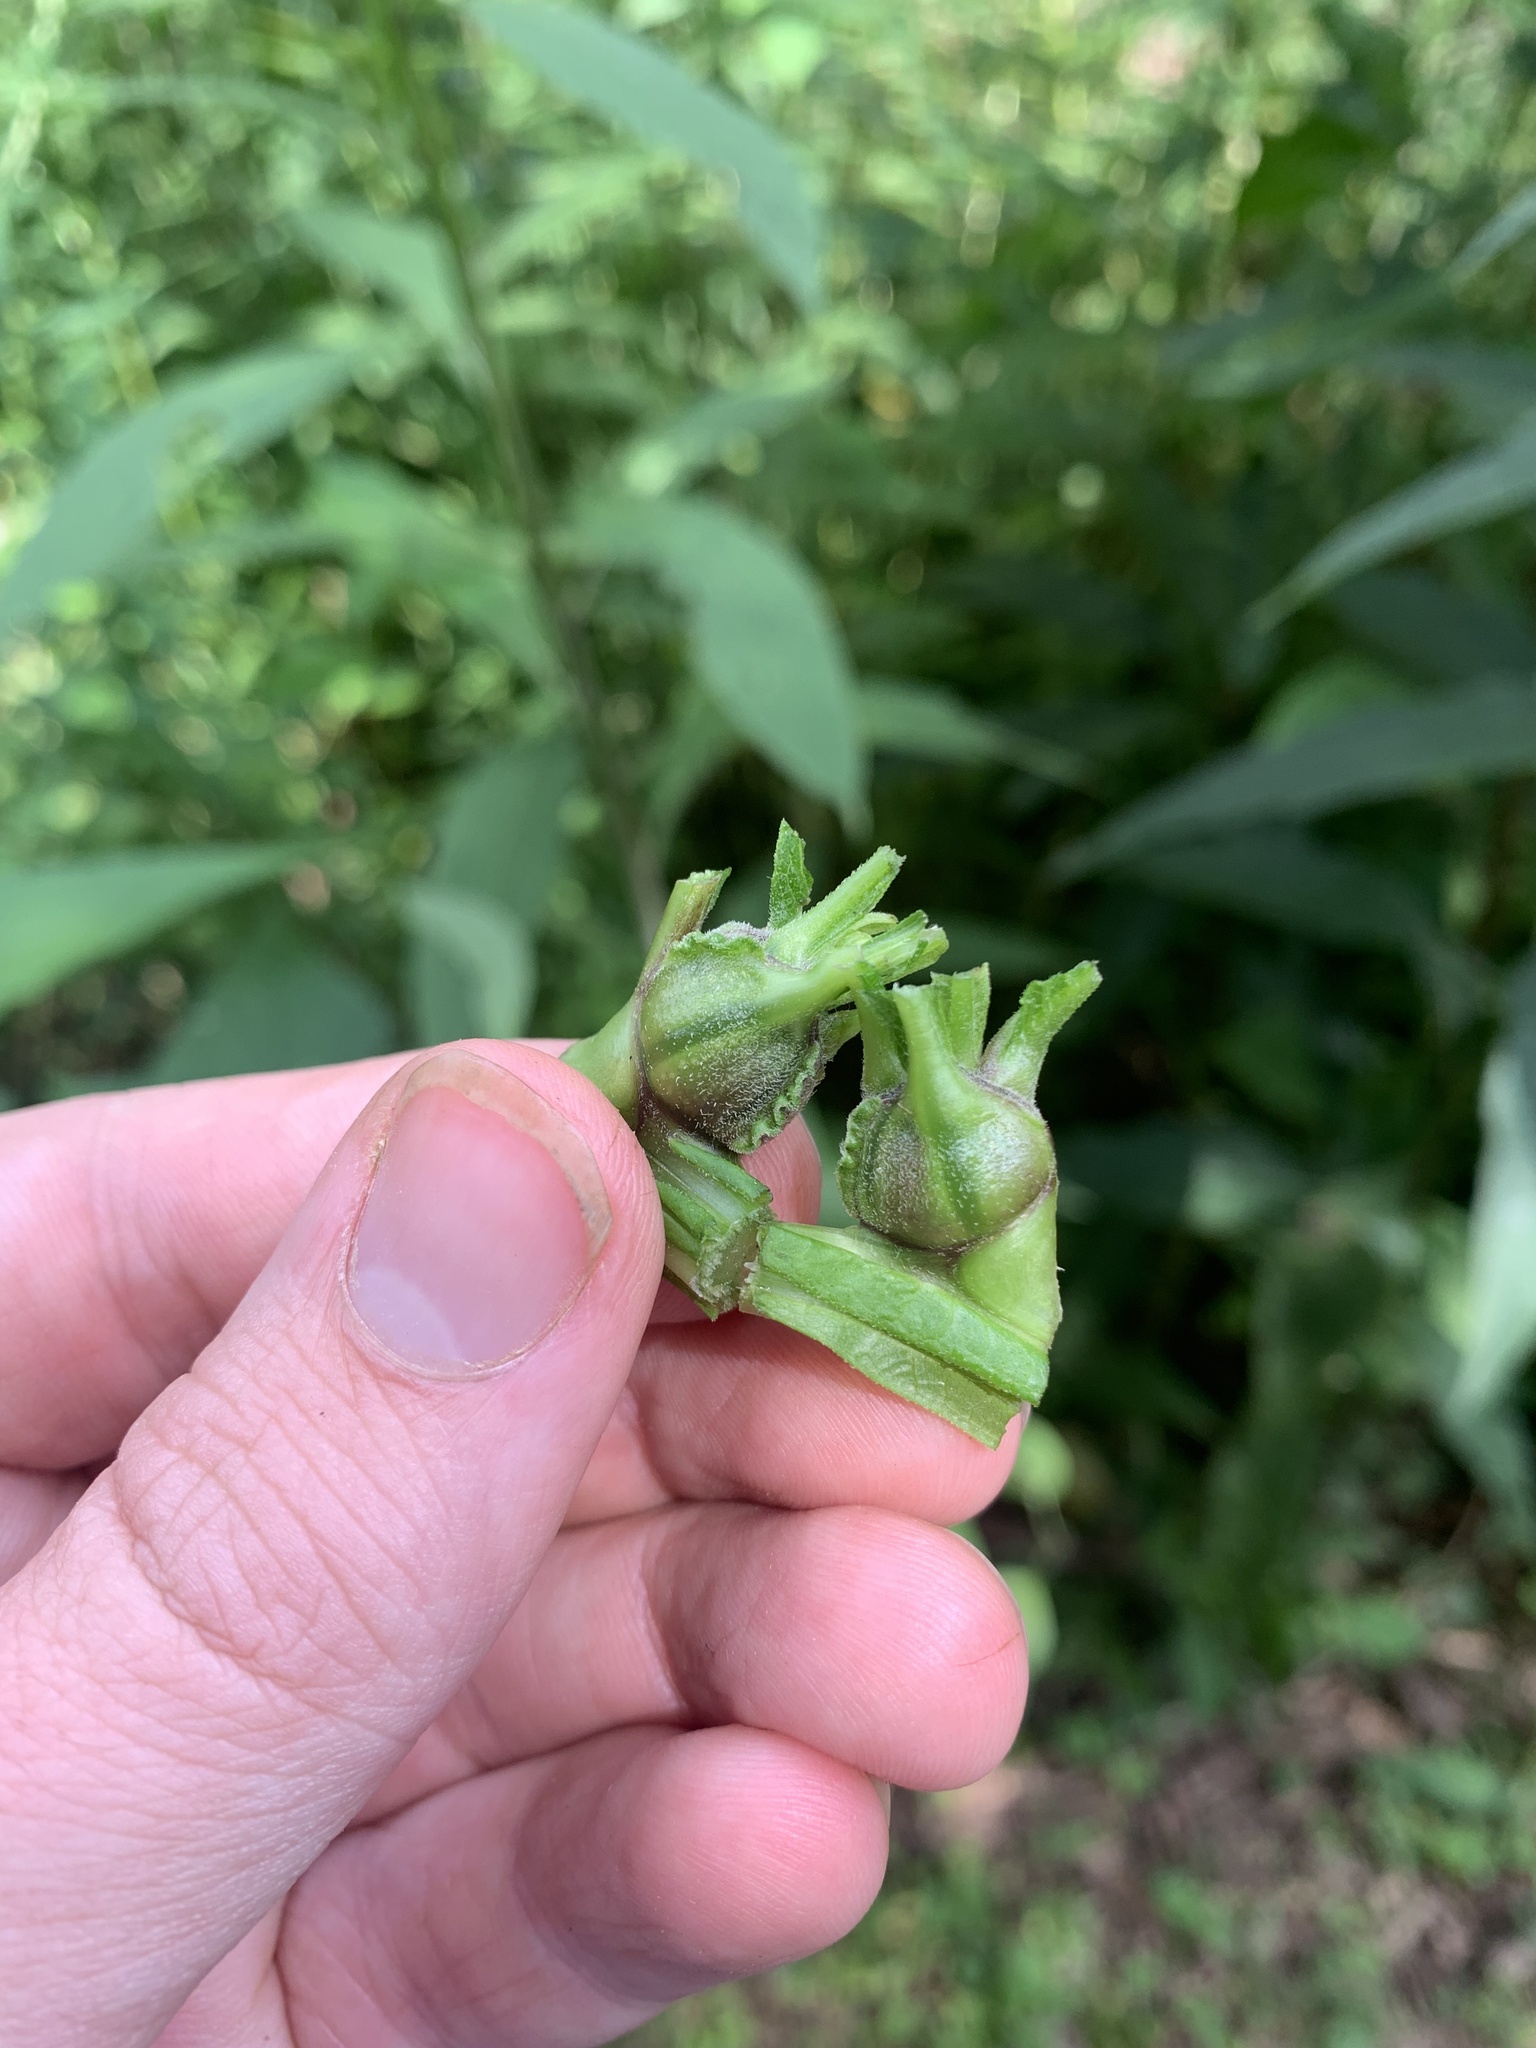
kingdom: Animalia
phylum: Arthropoda
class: Insecta
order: Diptera
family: Cecidomyiidae
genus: Neolasioptera
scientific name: Neolasioptera verbesinae
